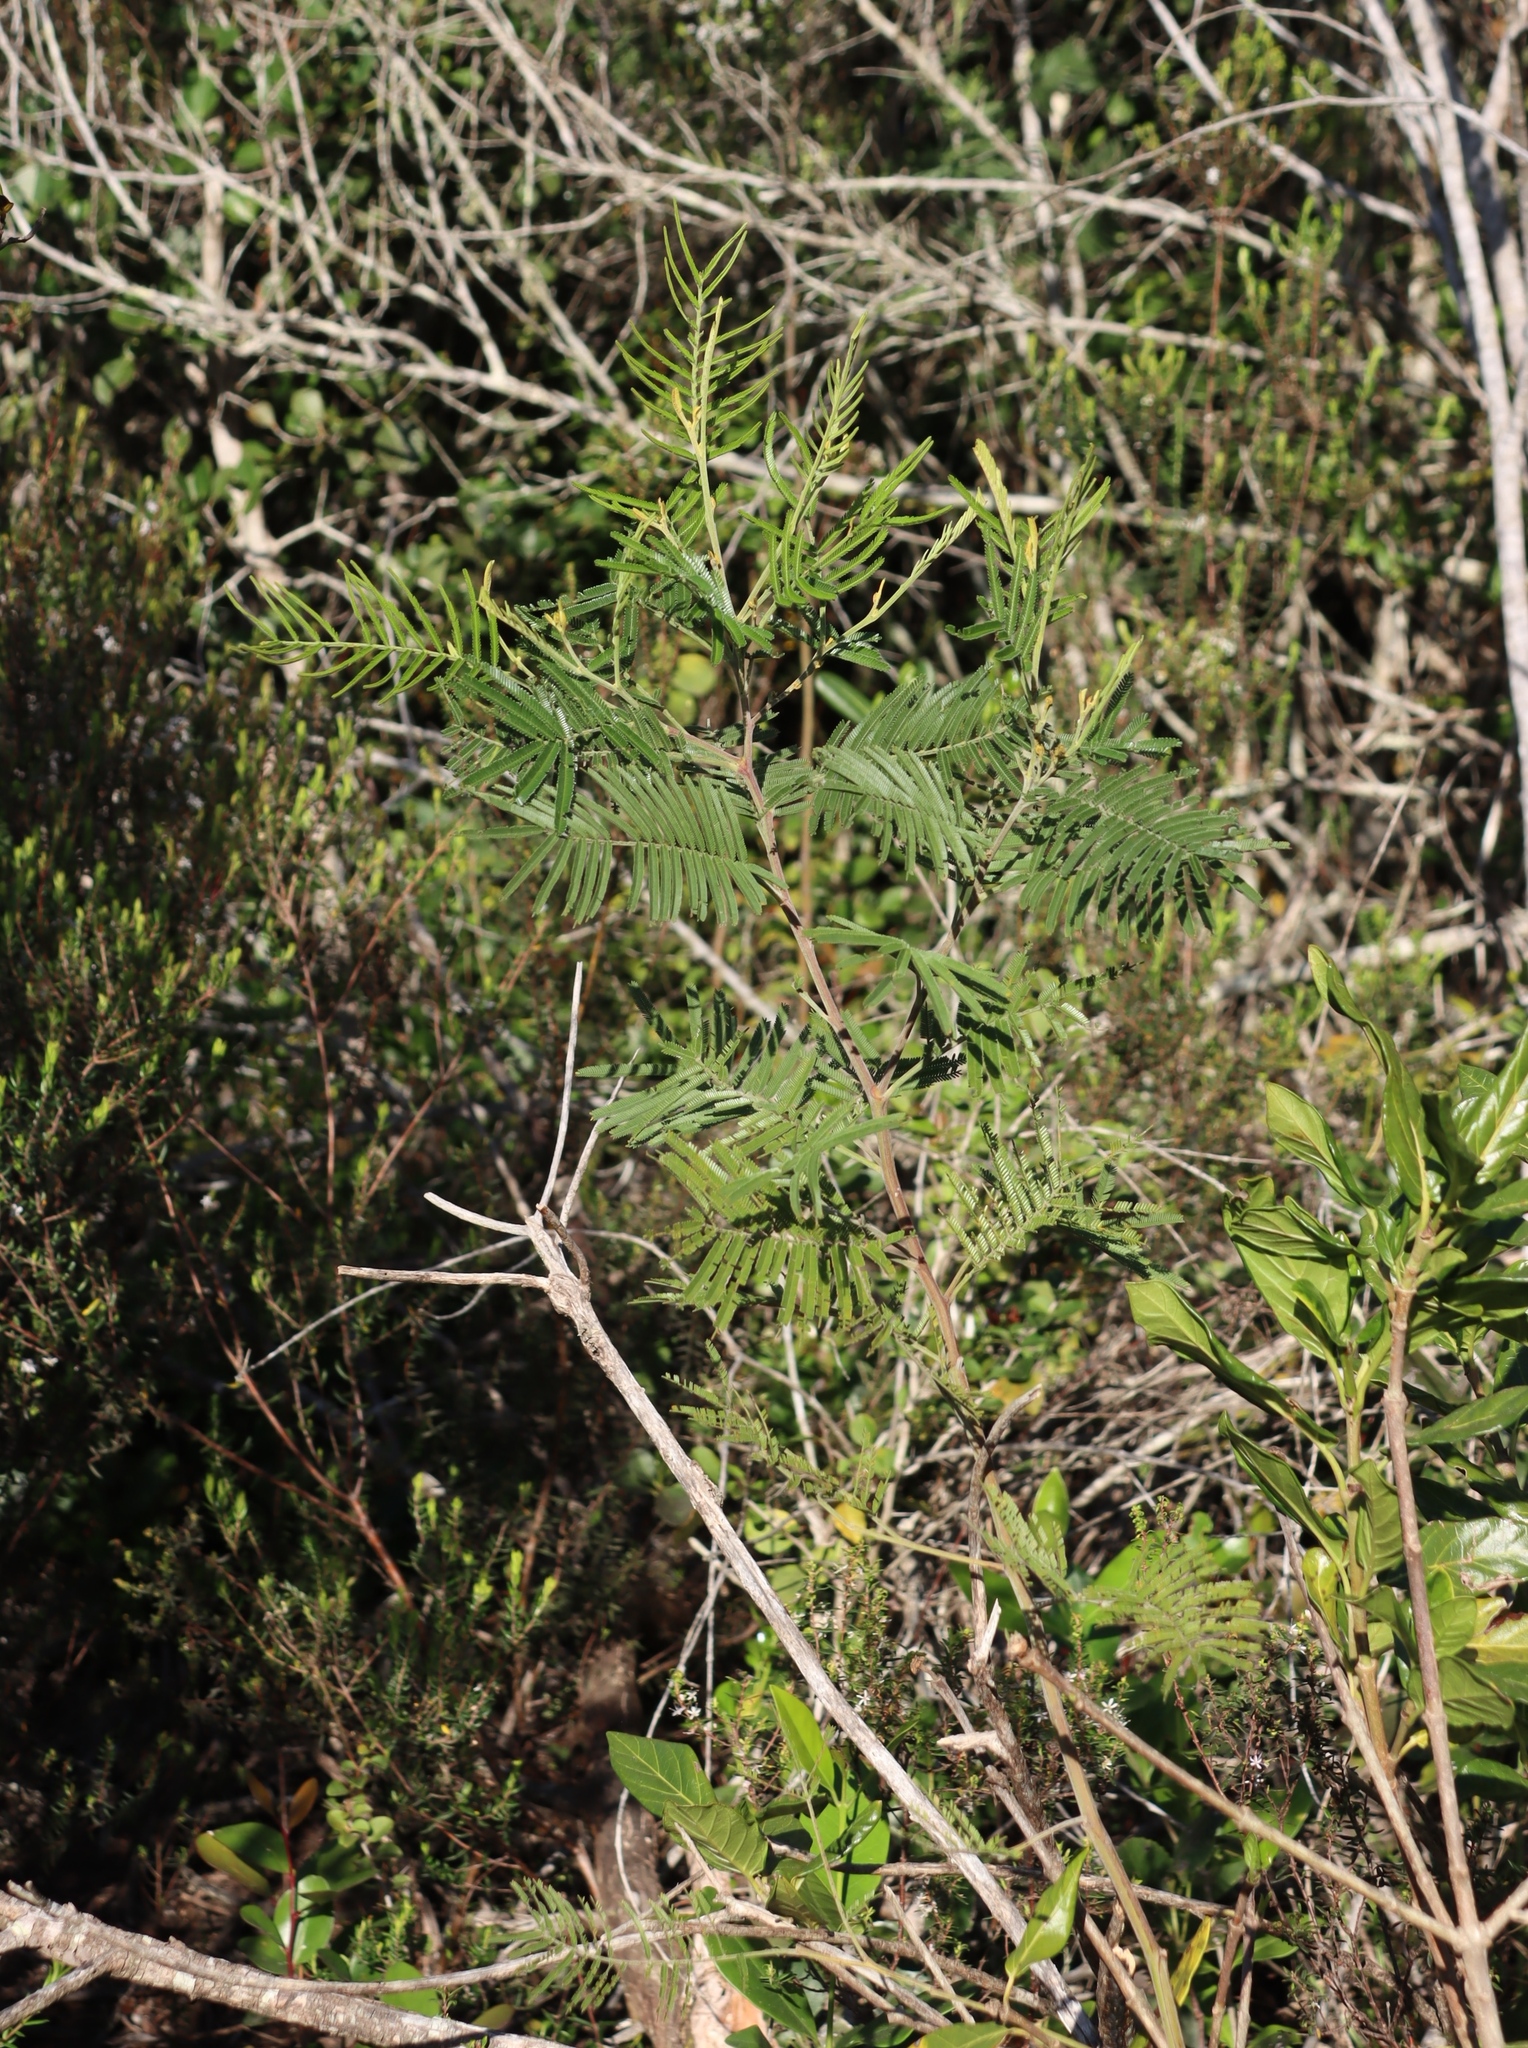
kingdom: Plantae
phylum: Tracheophyta
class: Magnoliopsida
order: Fabales
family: Fabaceae
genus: Acacia
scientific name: Acacia mearnsii
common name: Black wattle
